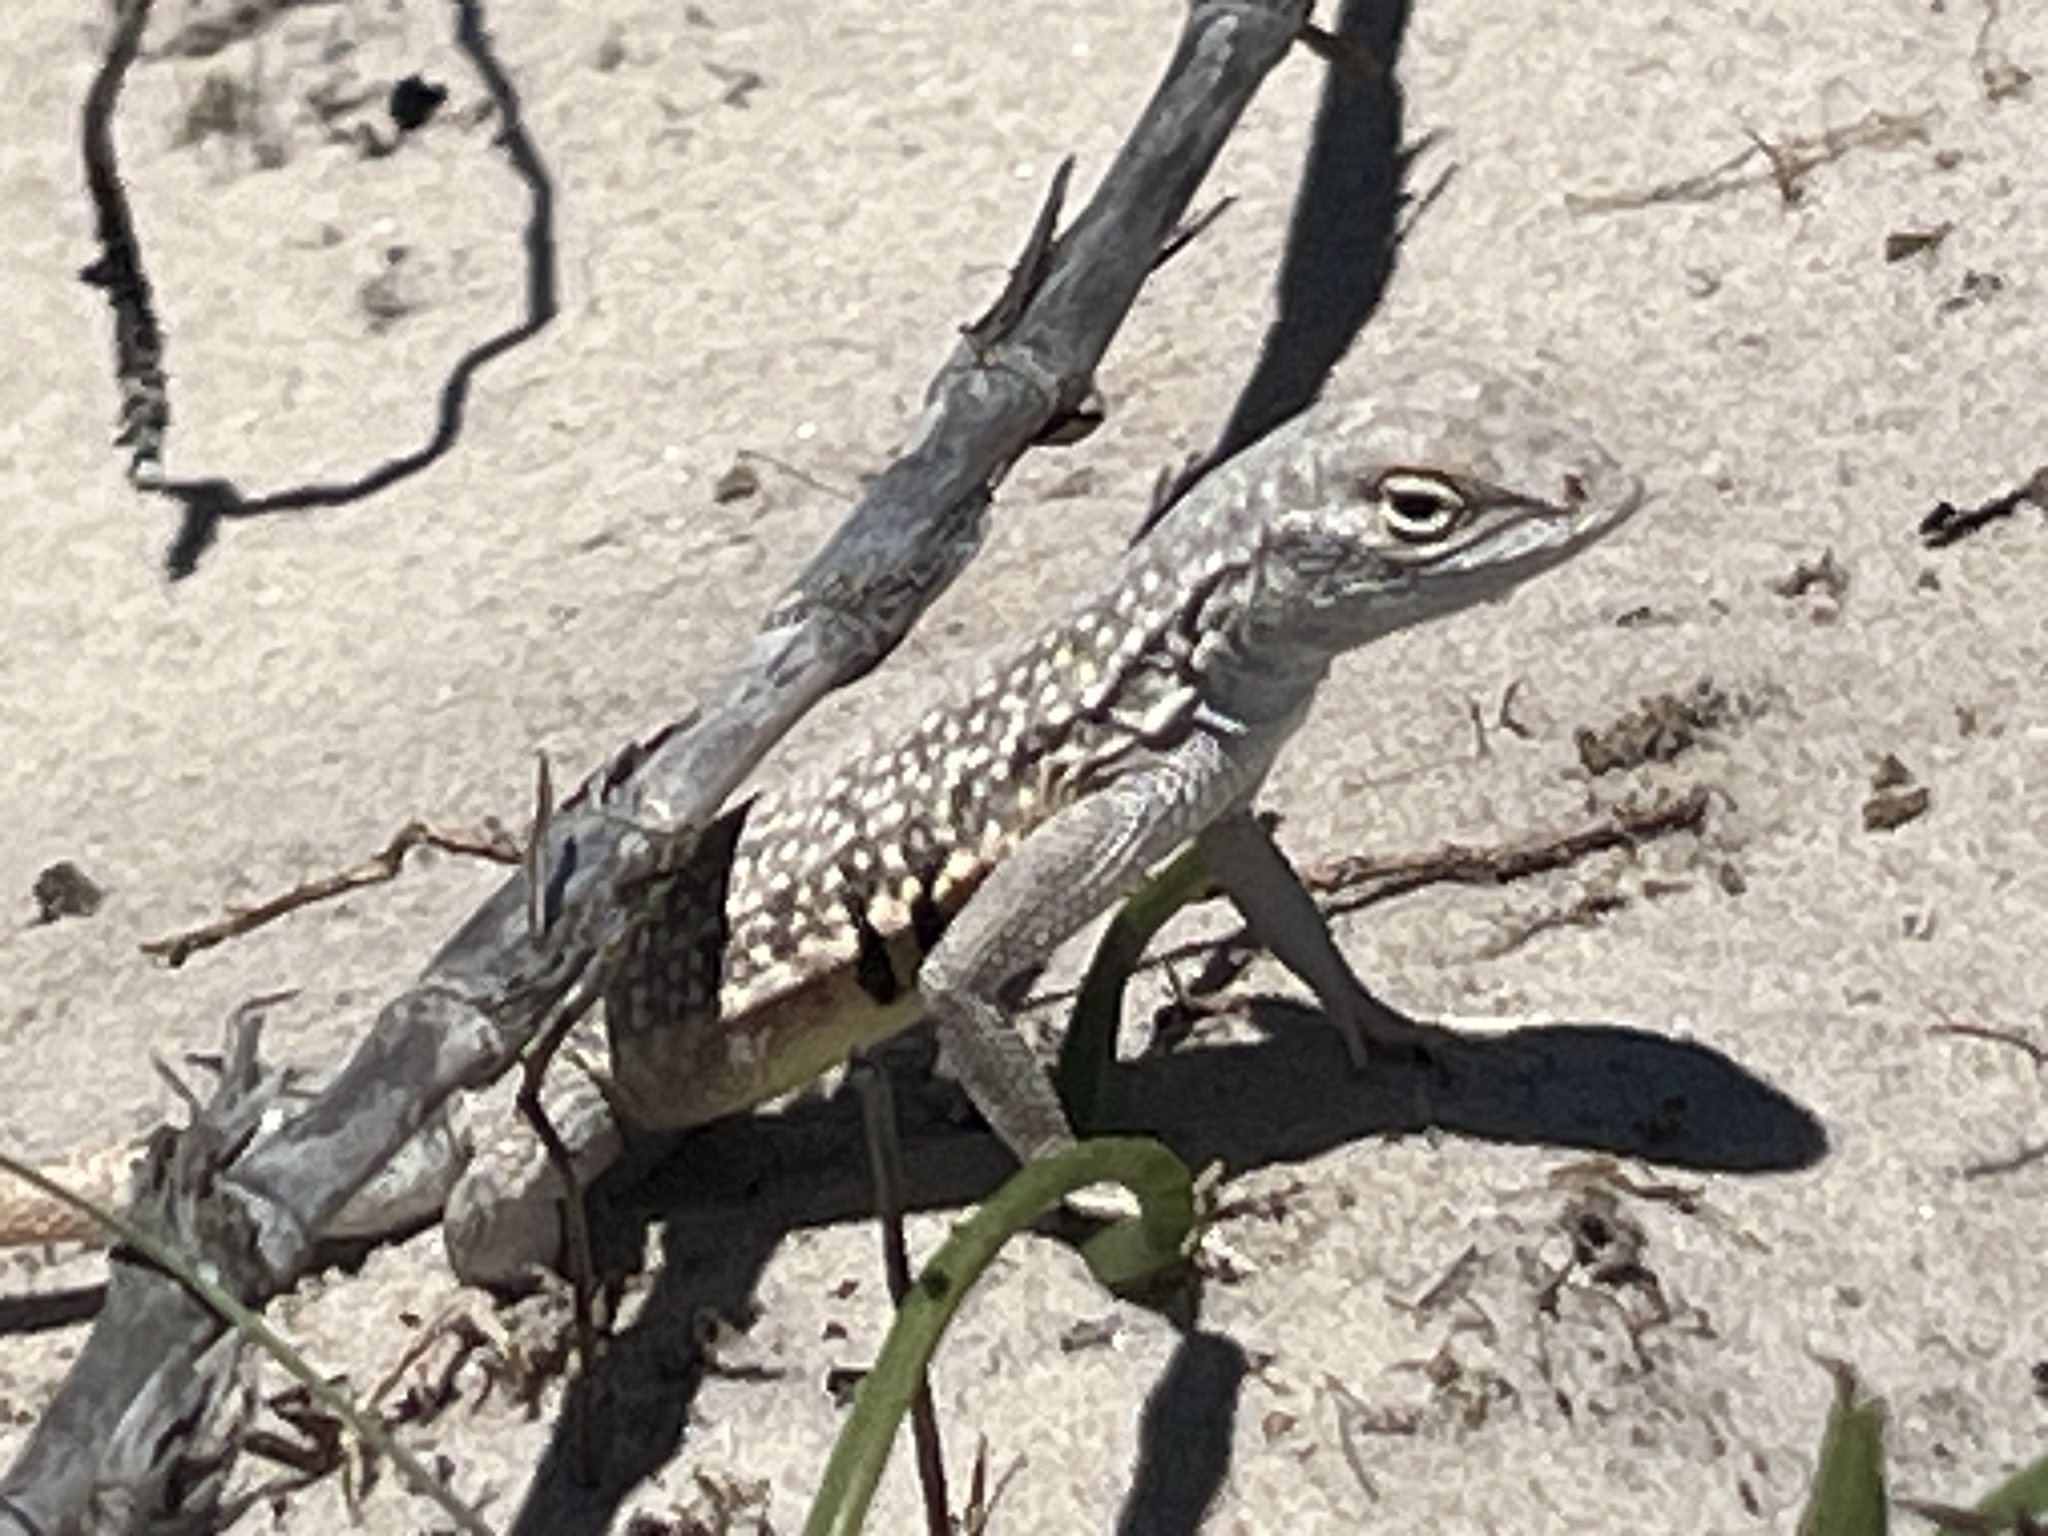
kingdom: Animalia
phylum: Chordata
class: Squamata
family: Phrynosomatidae
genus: Holbrookia
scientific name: Holbrookia propinqua
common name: Keeled earless lizard
